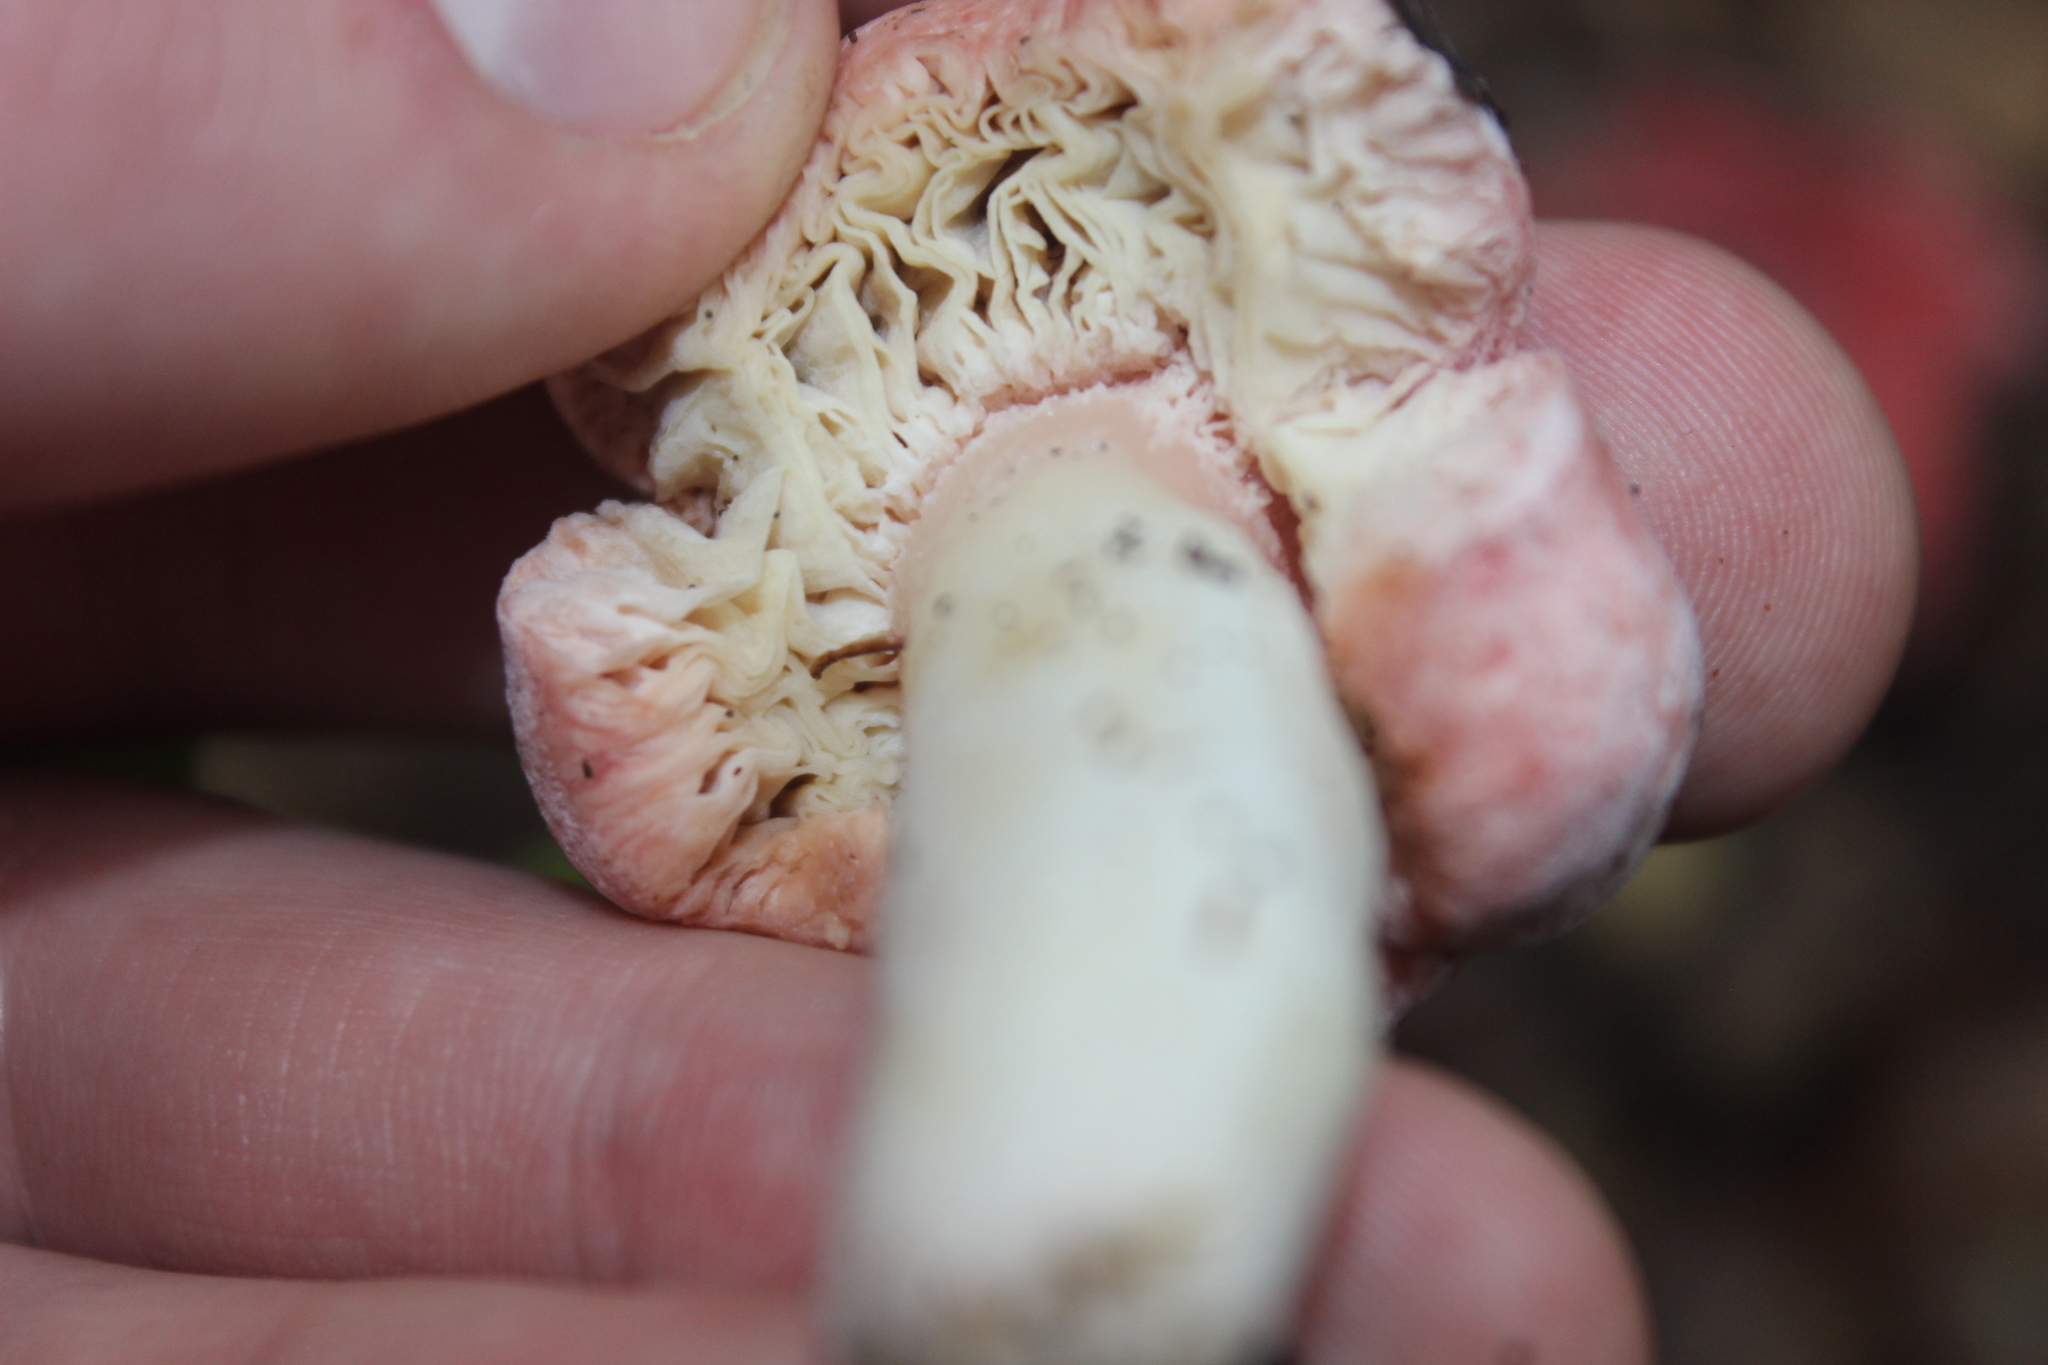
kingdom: Fungi
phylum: Basidiomycota
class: Agaricomycetes
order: Russulales
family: Russulaceae
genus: Russula
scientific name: Russula kermesina
